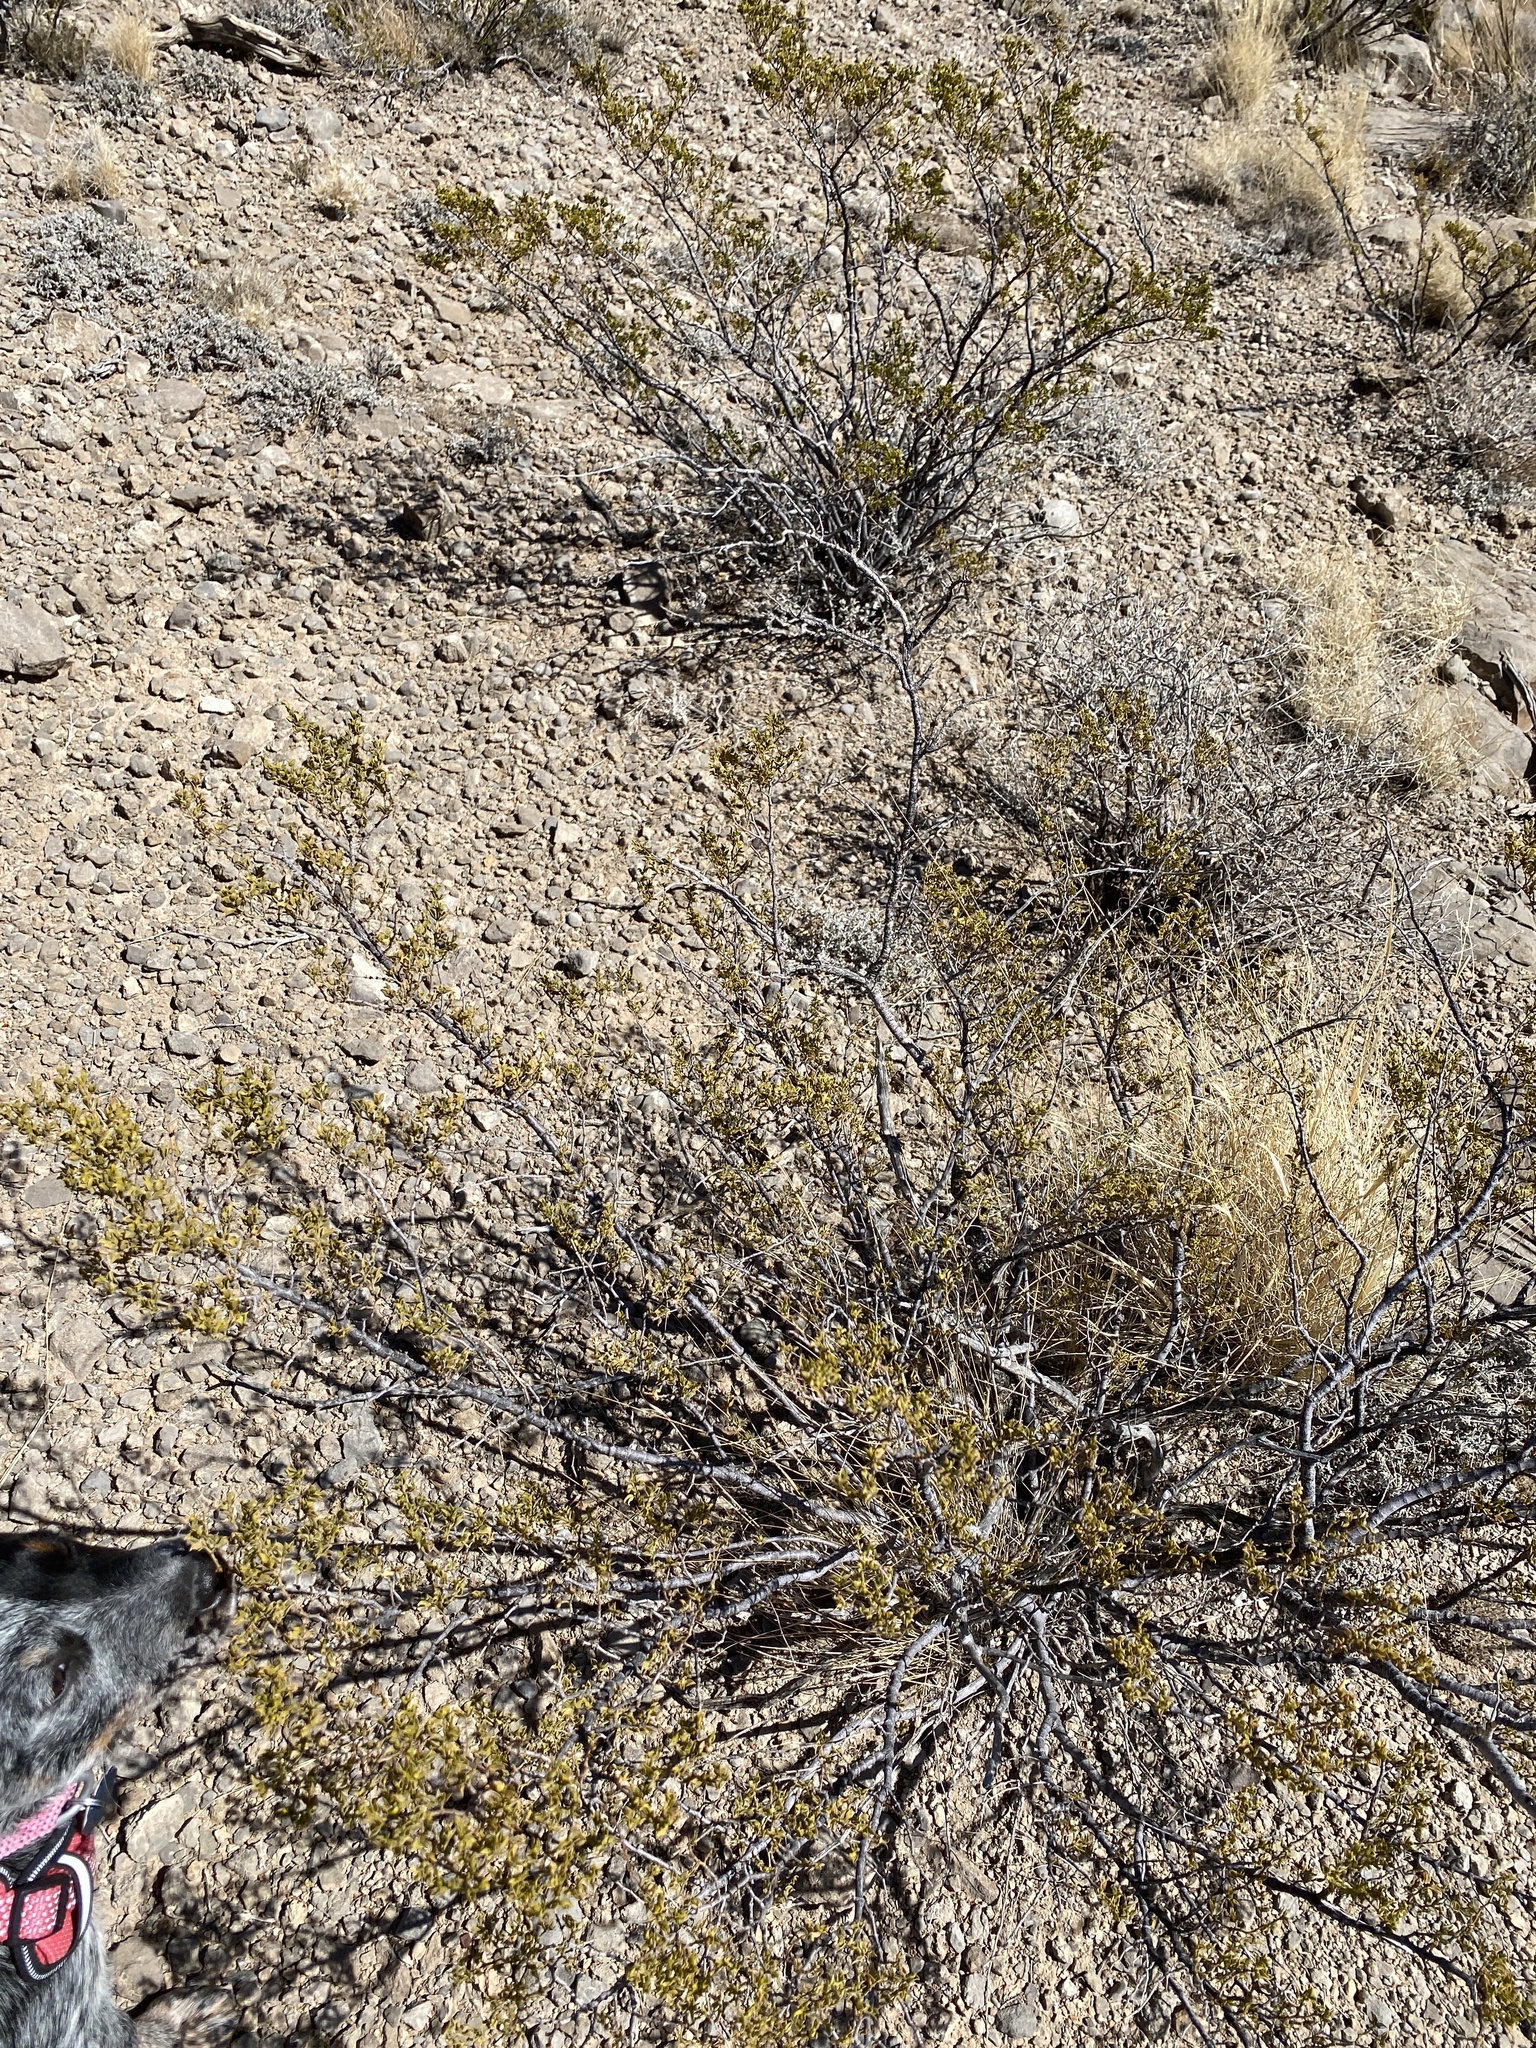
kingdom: Plantae
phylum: Tracheophyta
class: Magnoliopsida
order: Zygophyllales
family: Zygophyllaceae
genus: Larrea
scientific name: Larrea tridentata
